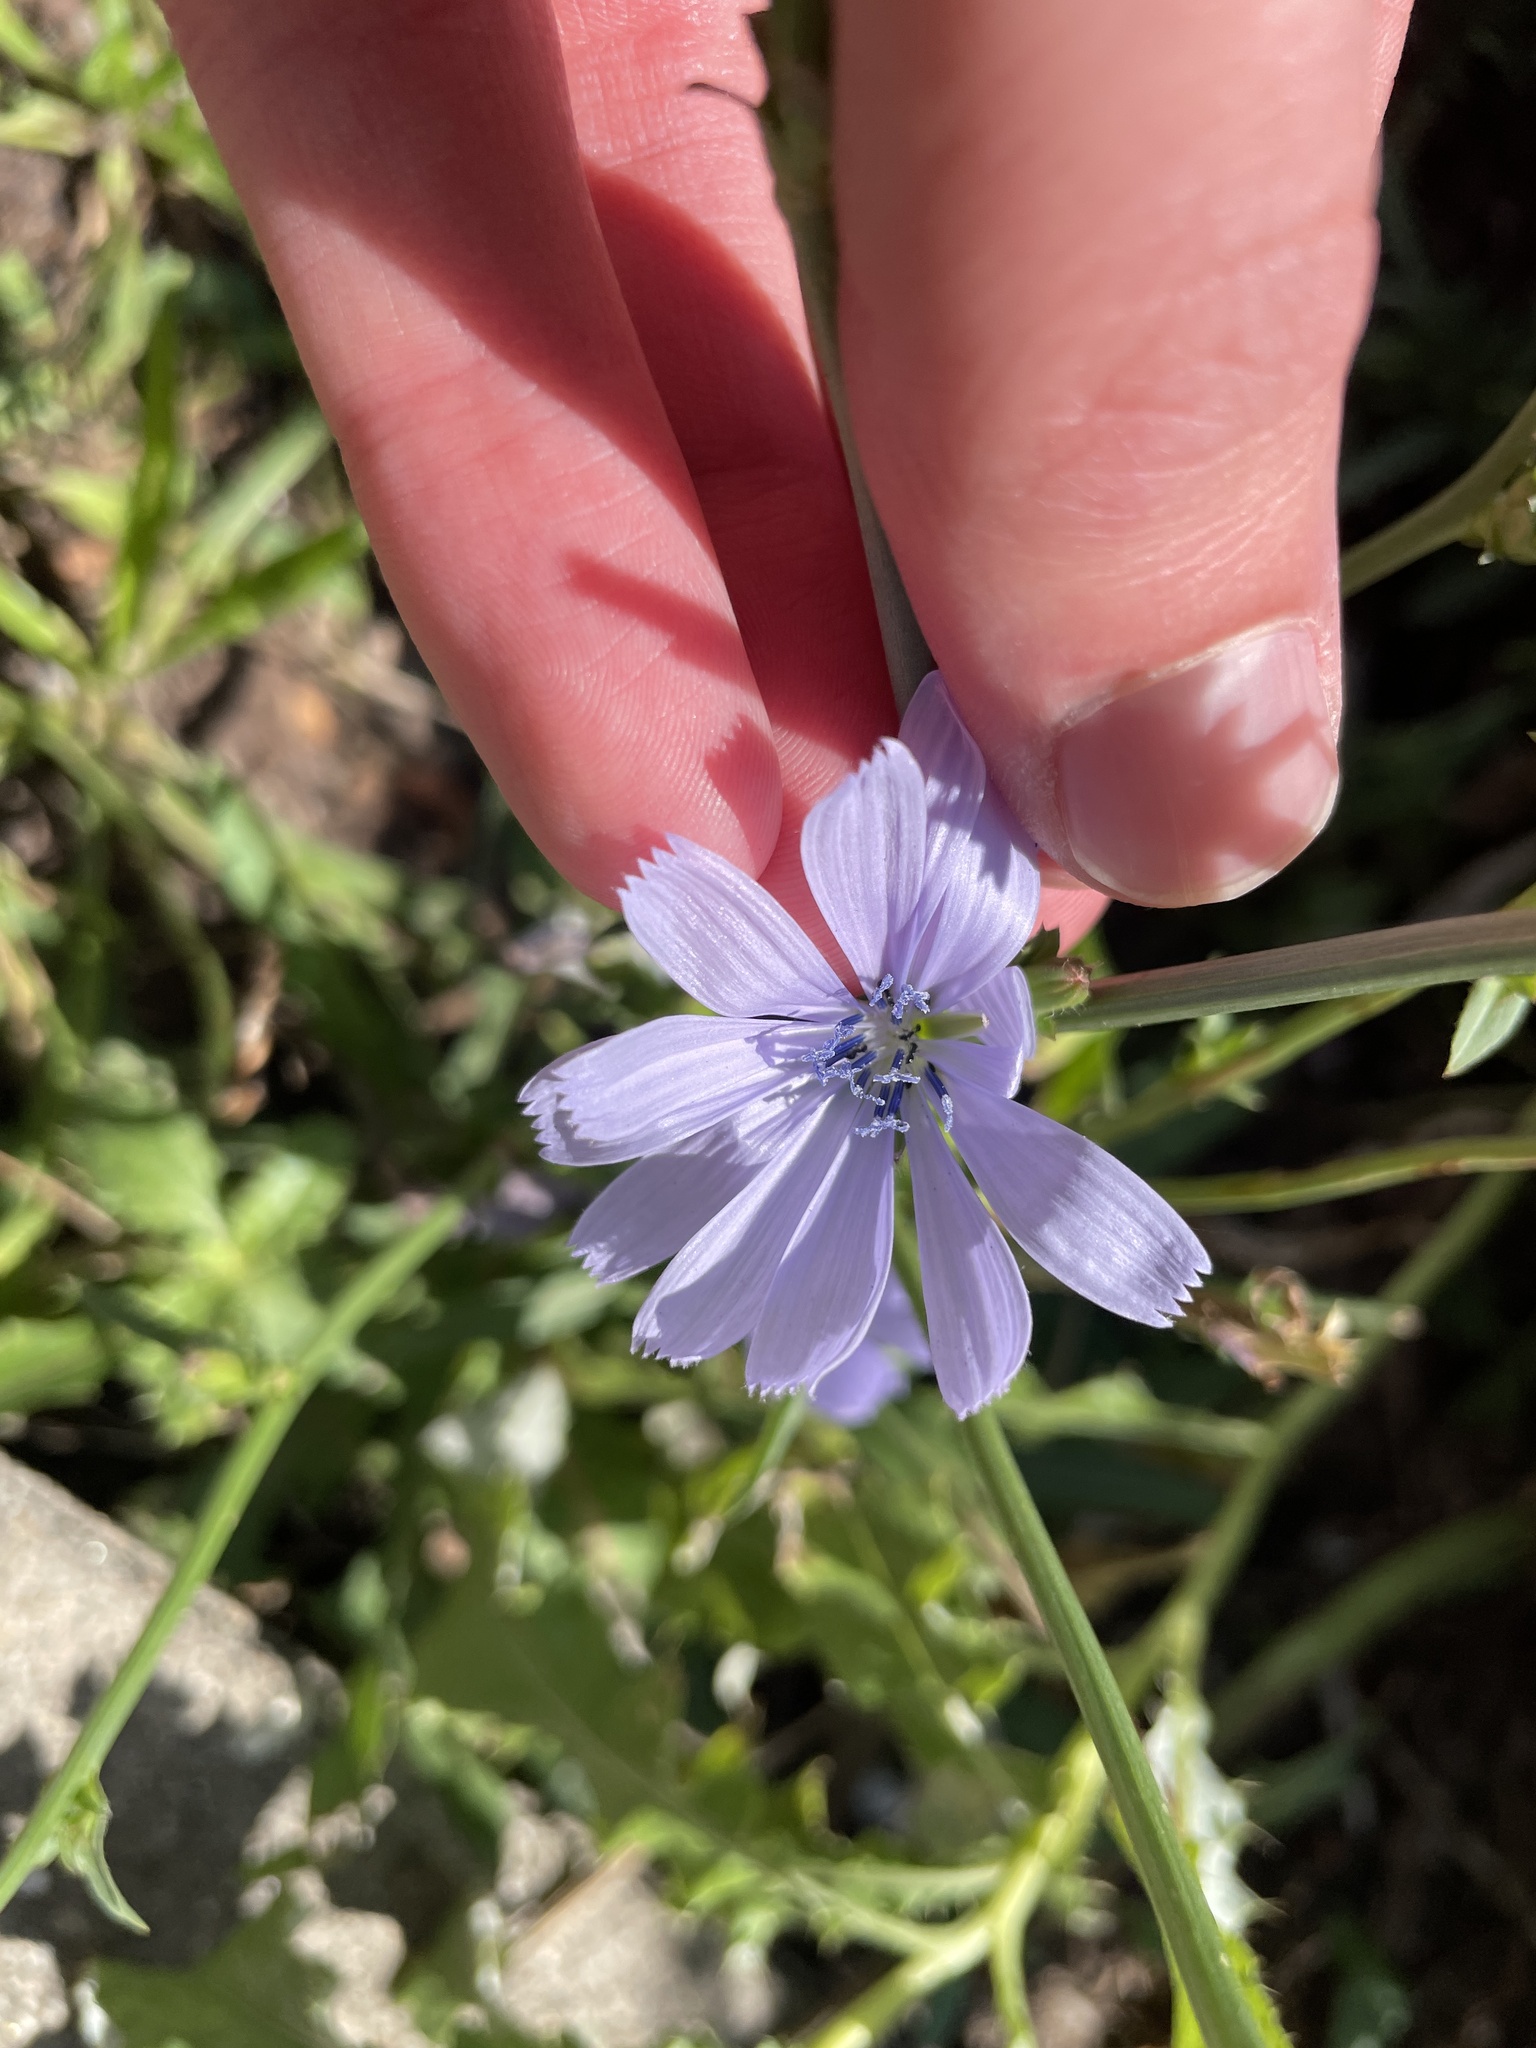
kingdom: Plantae
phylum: Tracheophyta
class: Magnoliopsida
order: Asterales
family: Asteraceae
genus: Cichorium
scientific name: Cichorium intybus
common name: Chicory
